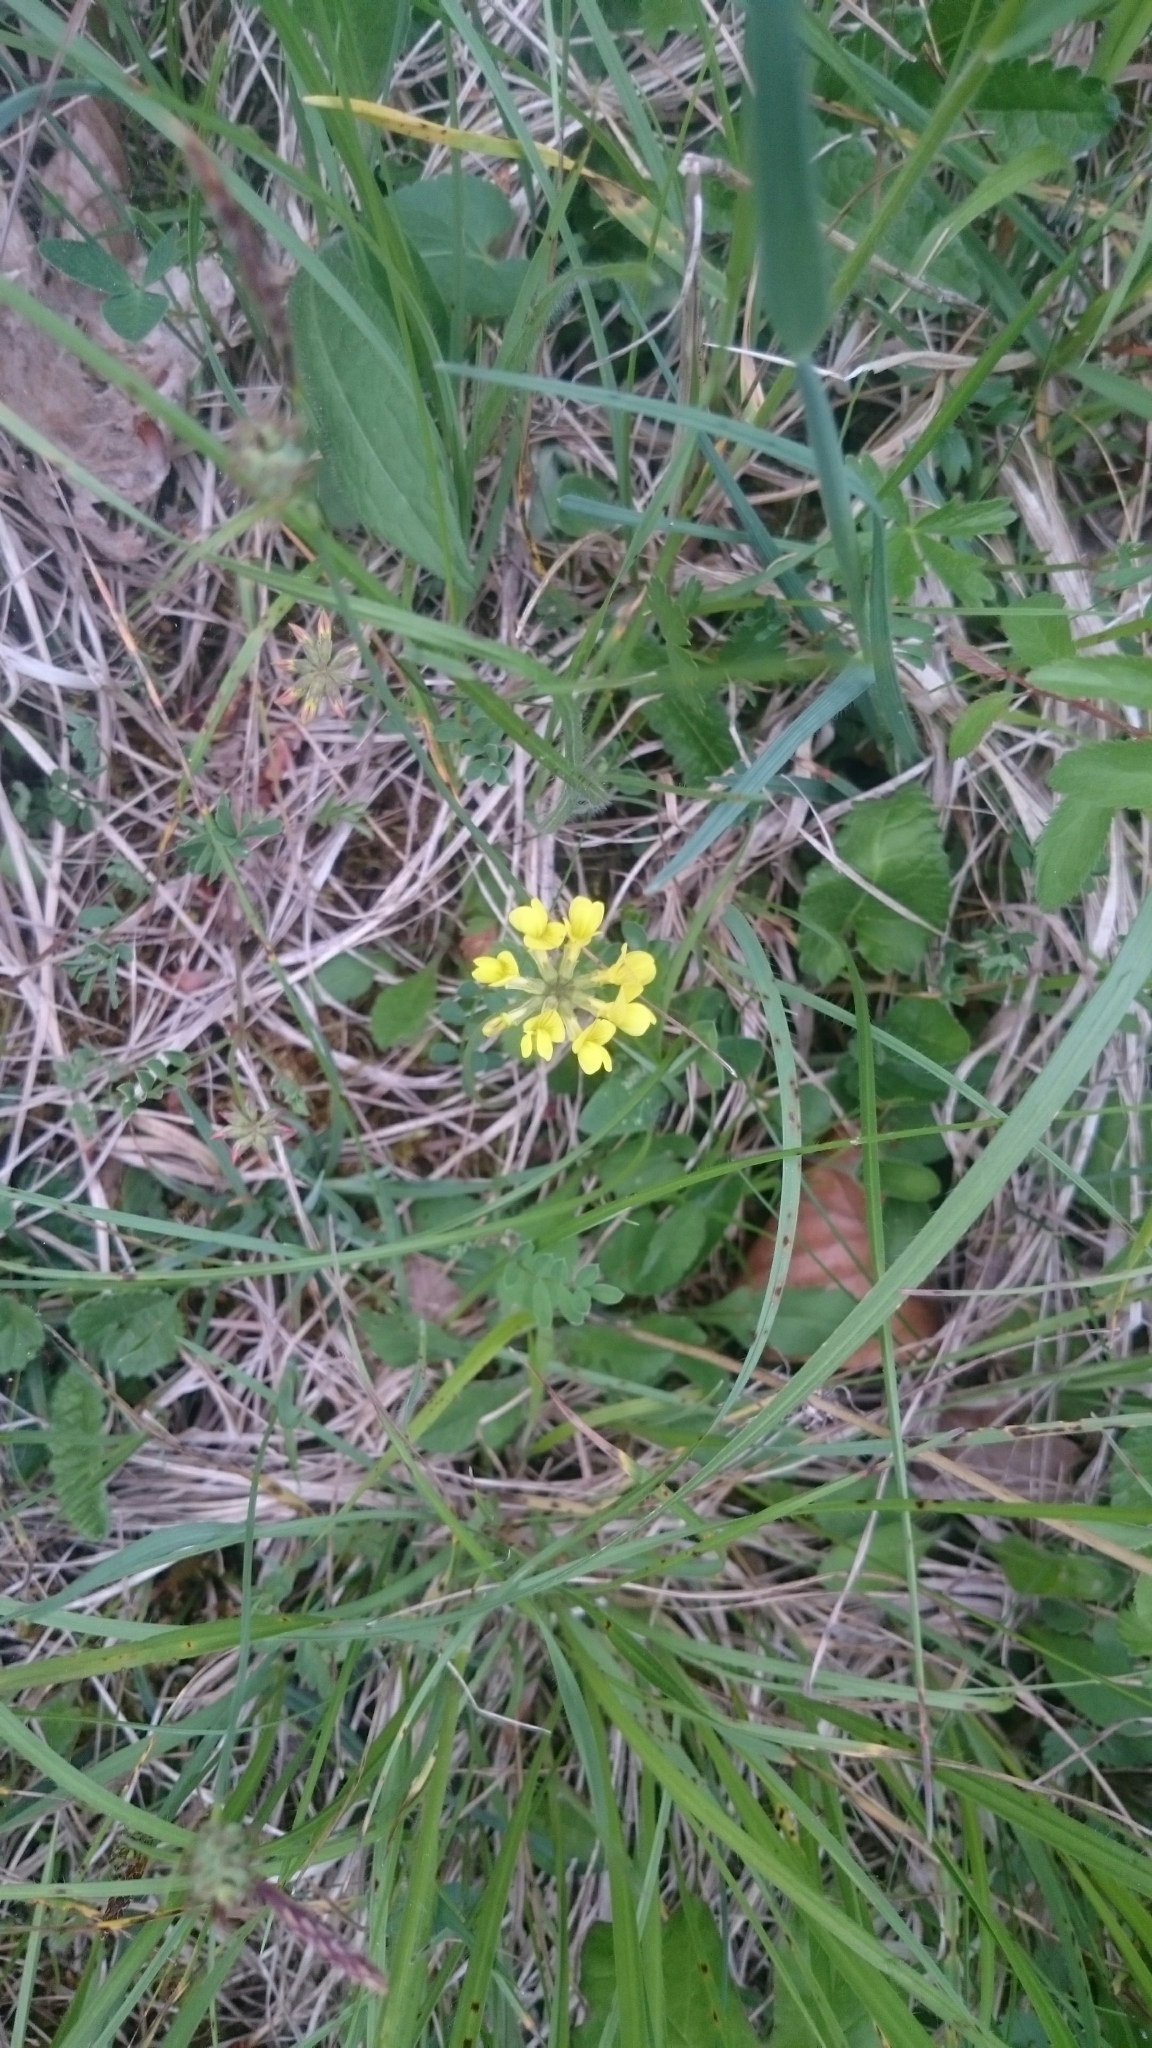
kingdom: Plantae
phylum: Tracheophyta
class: Magnoliopsida
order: Fabales
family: Fabaceae
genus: Hippocrepis
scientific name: Hippocrepis comosa
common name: Horseshoe vetch
